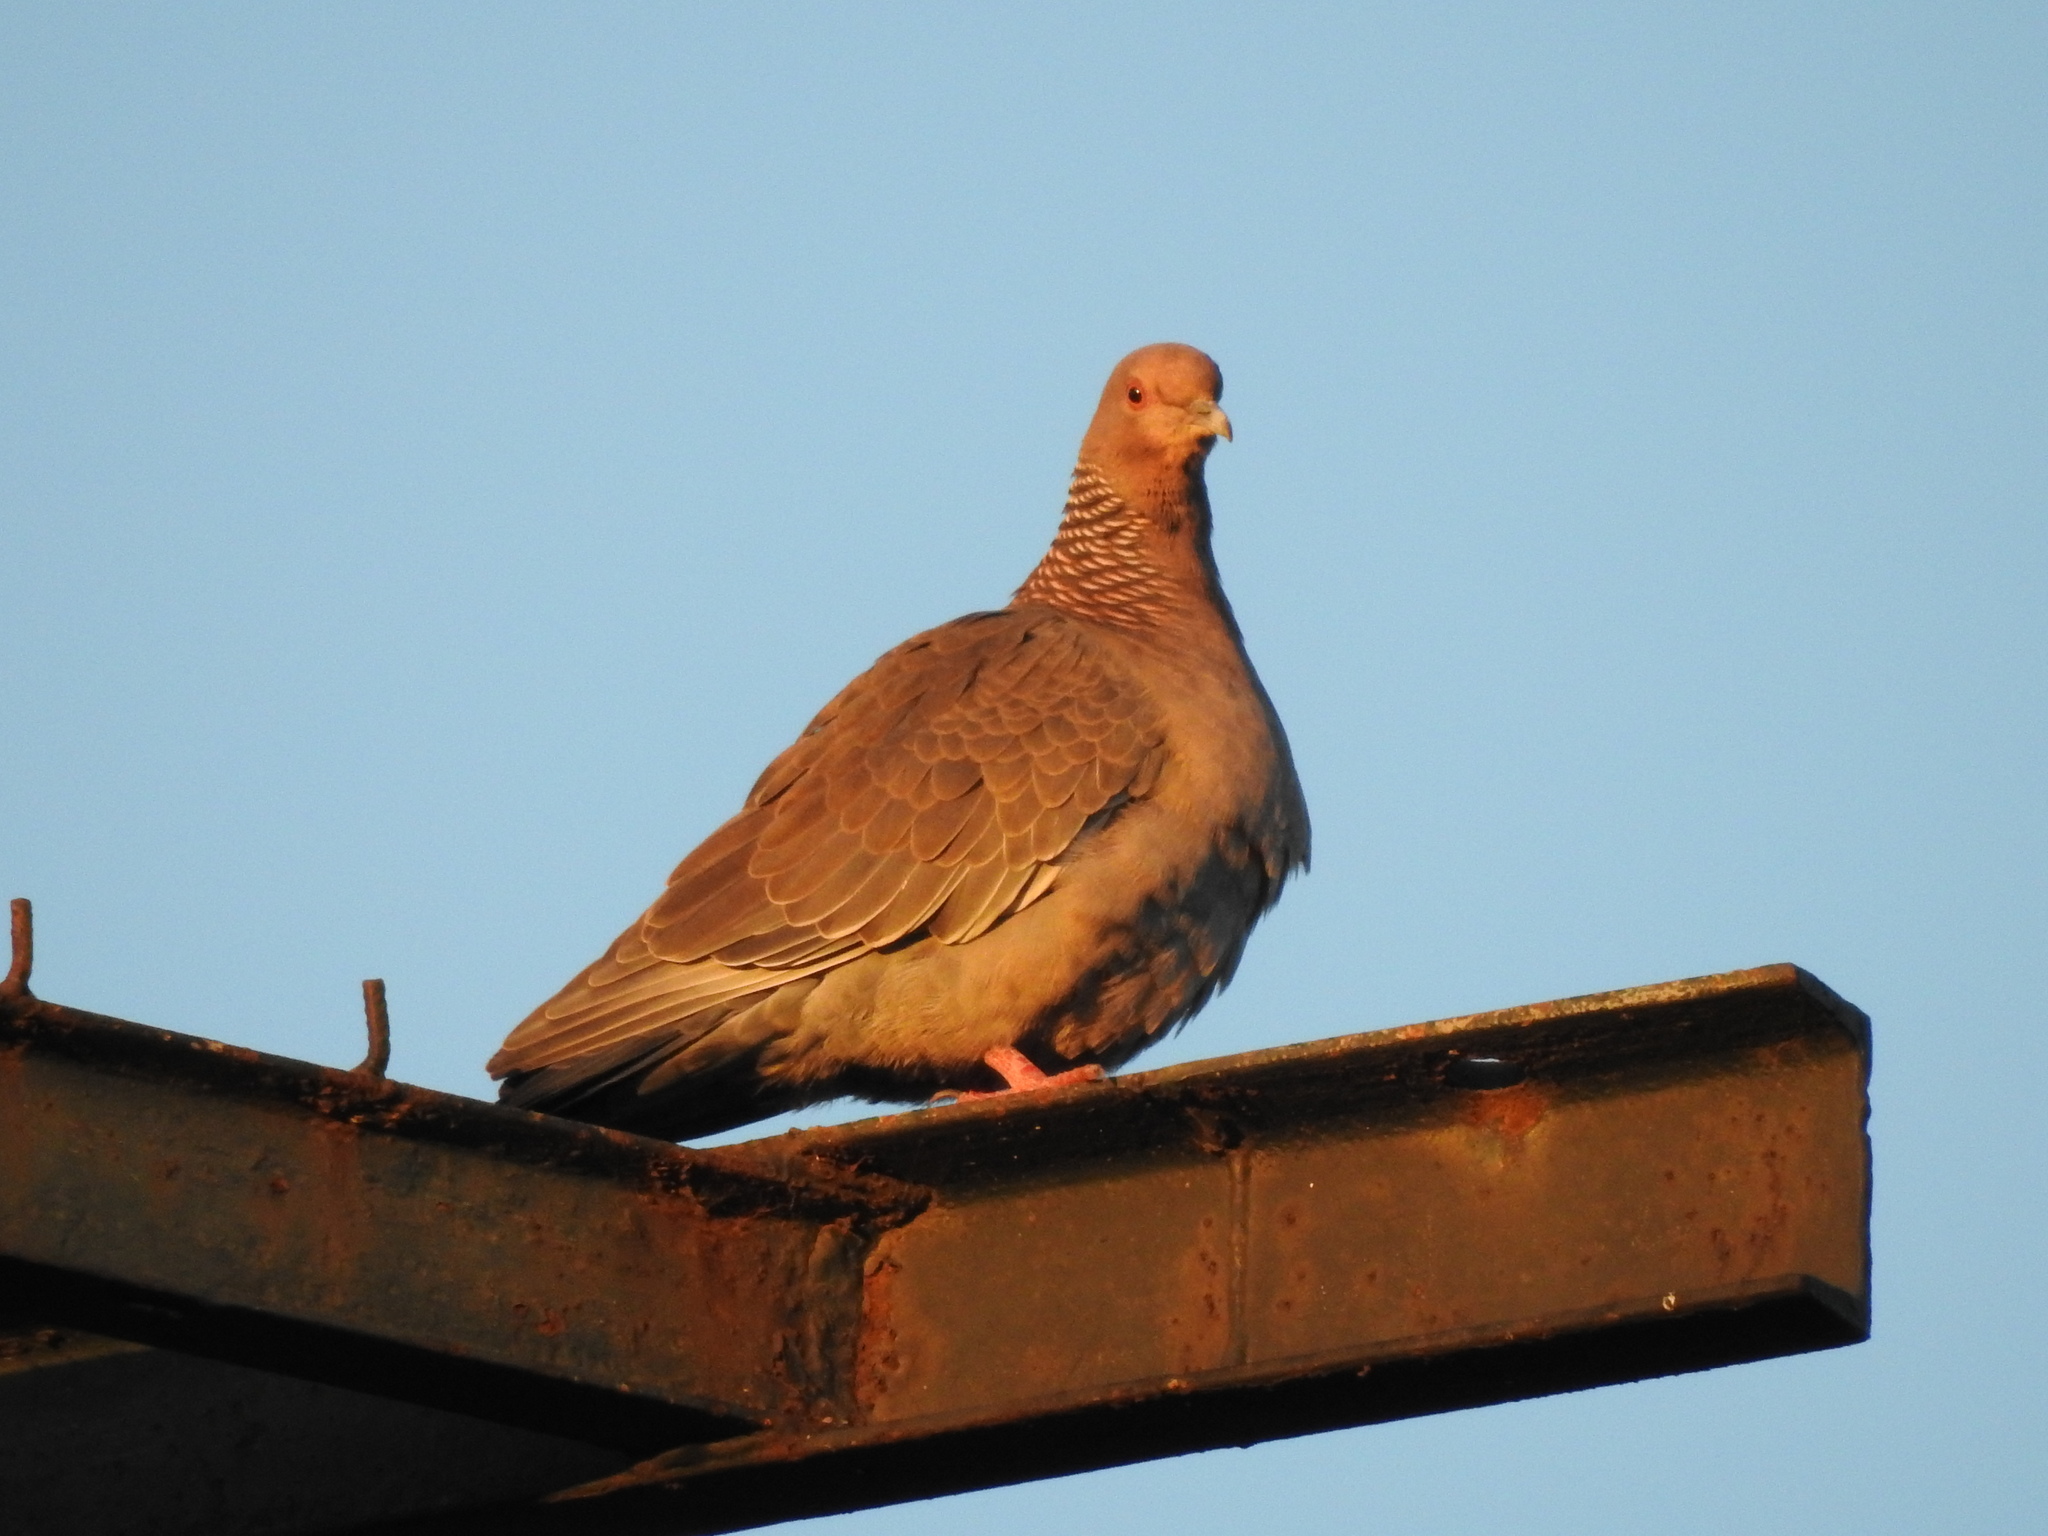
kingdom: Animalia
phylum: Chordata
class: Aves
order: Columbiformes
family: Columbidae
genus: Patagioenas
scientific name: Patagioenas picazuro
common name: Picazuro pigeon
